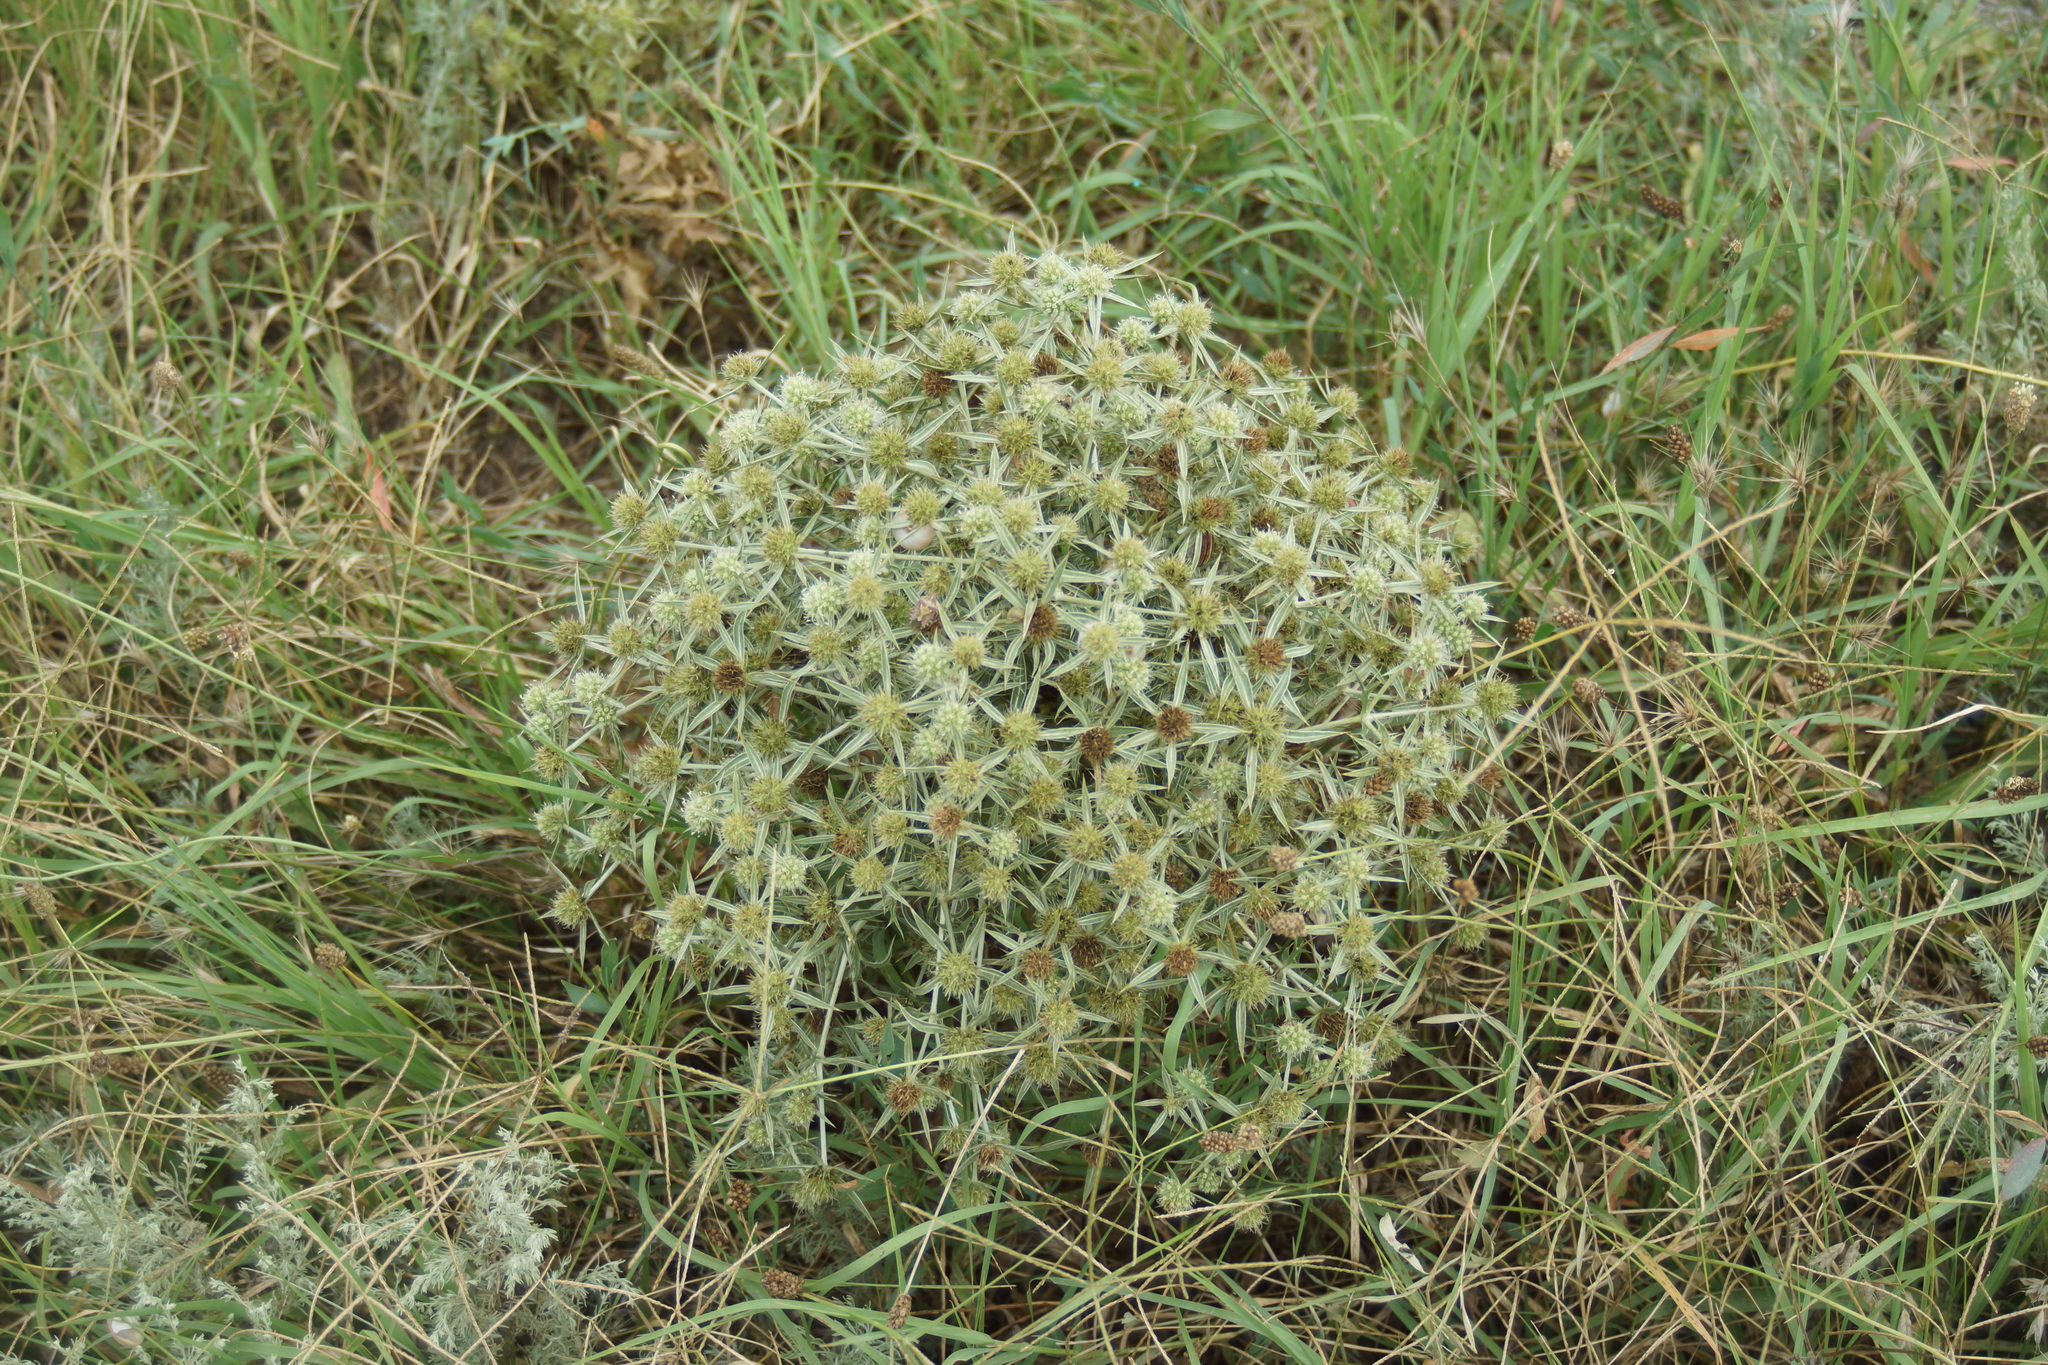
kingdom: Plantae
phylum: Tracheophyta
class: Magnoliopsida
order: Apiales
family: Apiaceae
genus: Eryngium
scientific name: Eryngium campestre
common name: Field eryngo
